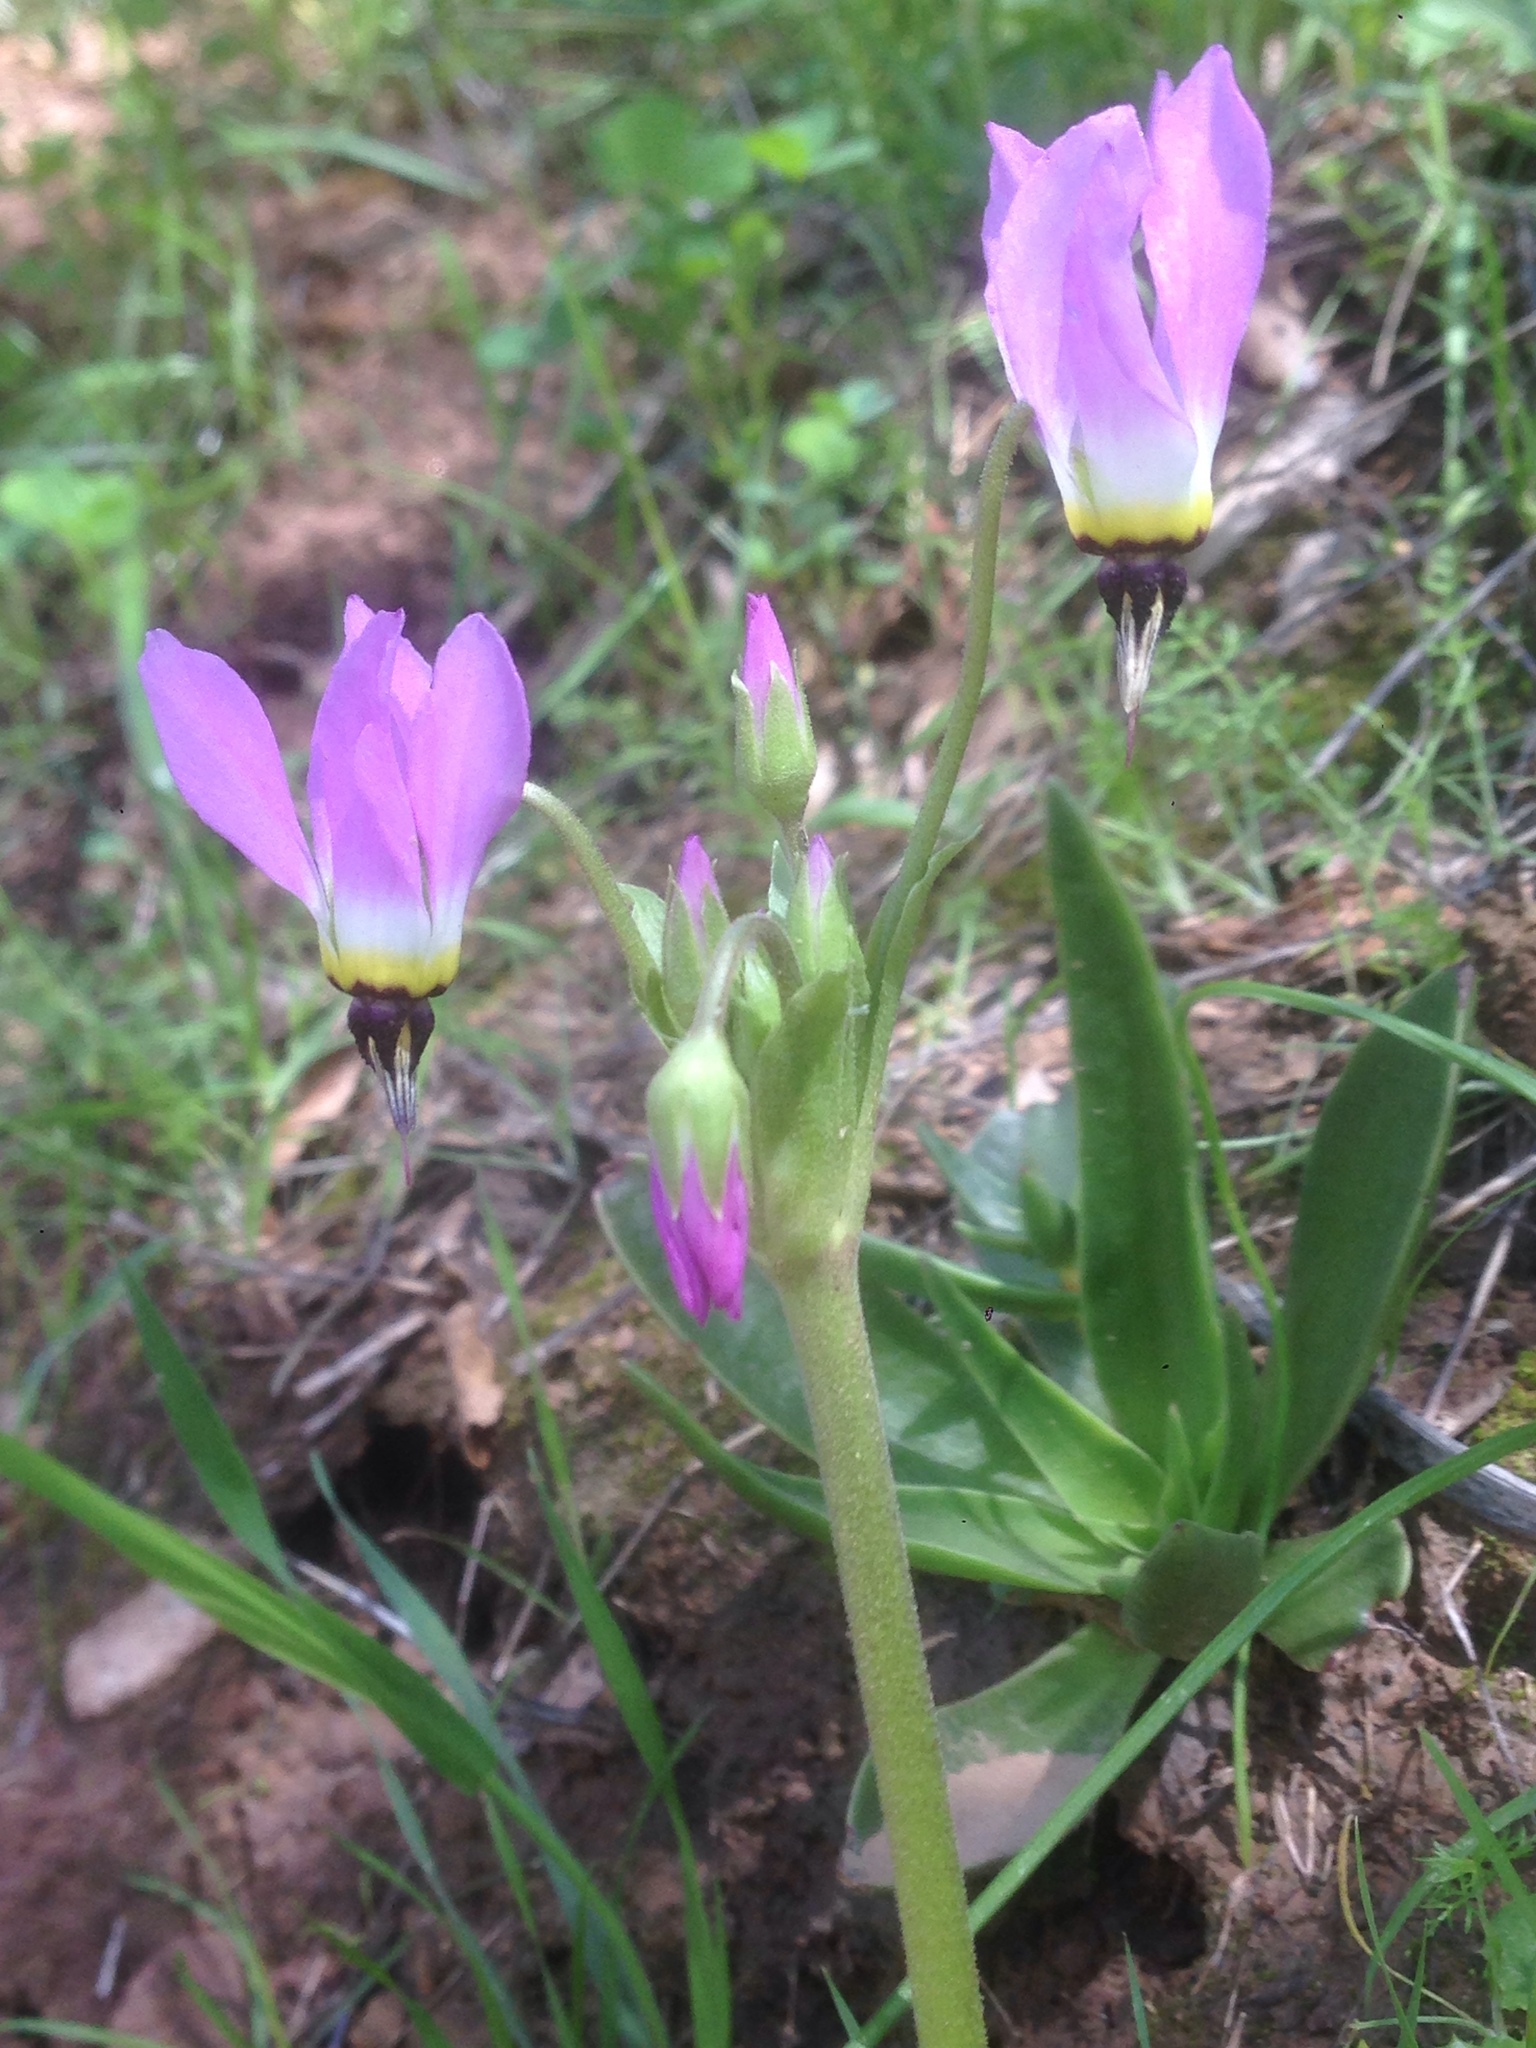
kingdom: Plantae
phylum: Tracheophyta
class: Magnoliopsida
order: Ericales
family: Primulaceae
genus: Dodecatheon
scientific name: Dodecatheon clevelandii
